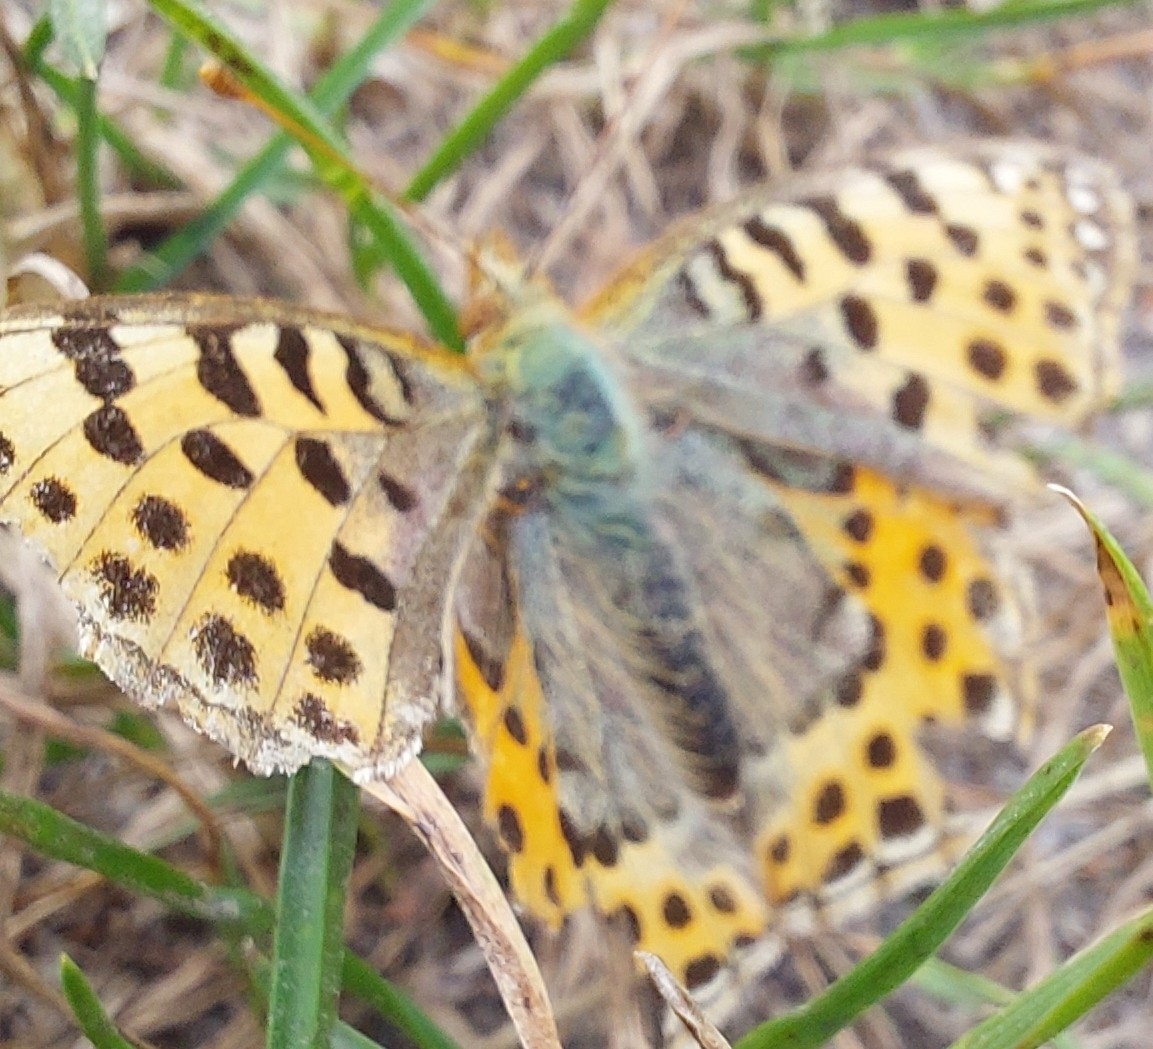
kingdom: Animalia
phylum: Arthropoda
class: Insecta
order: Lepidoptera
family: Nymphalidae
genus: Issoria
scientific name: Issoria lathonia
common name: Queen of spain fritillary
